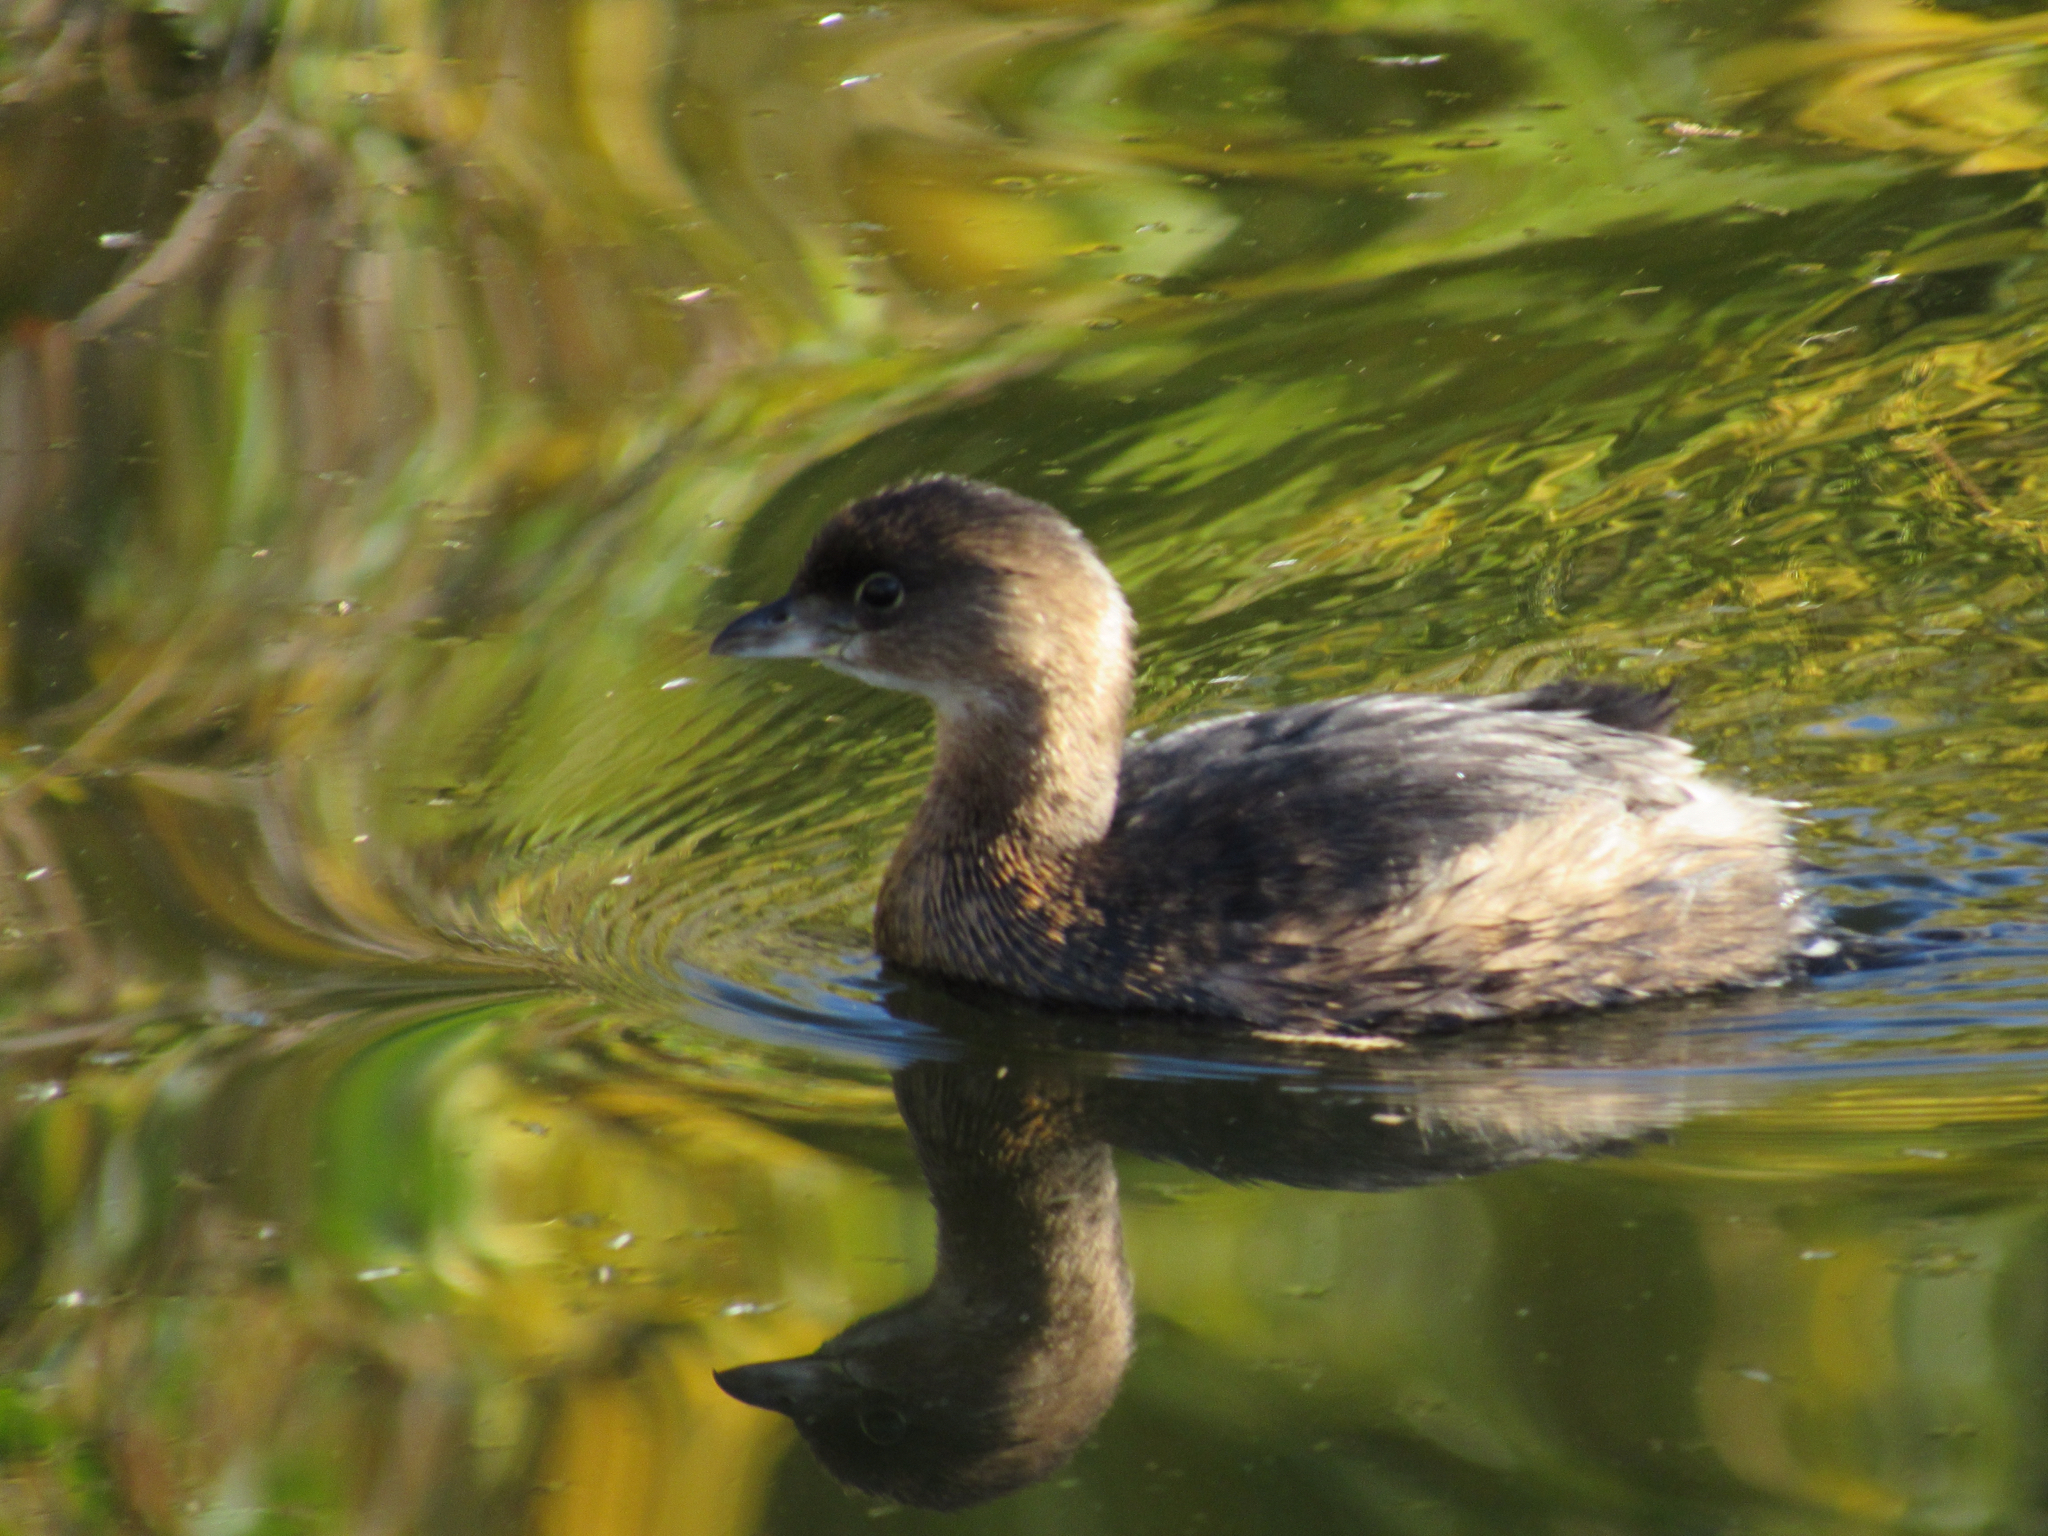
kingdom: Animalia
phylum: Chordata
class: Aves
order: Podicipediformes
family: Podicipedidae
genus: Podilymbus
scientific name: Podilymbus podiceps
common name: Pied-billed grebe
